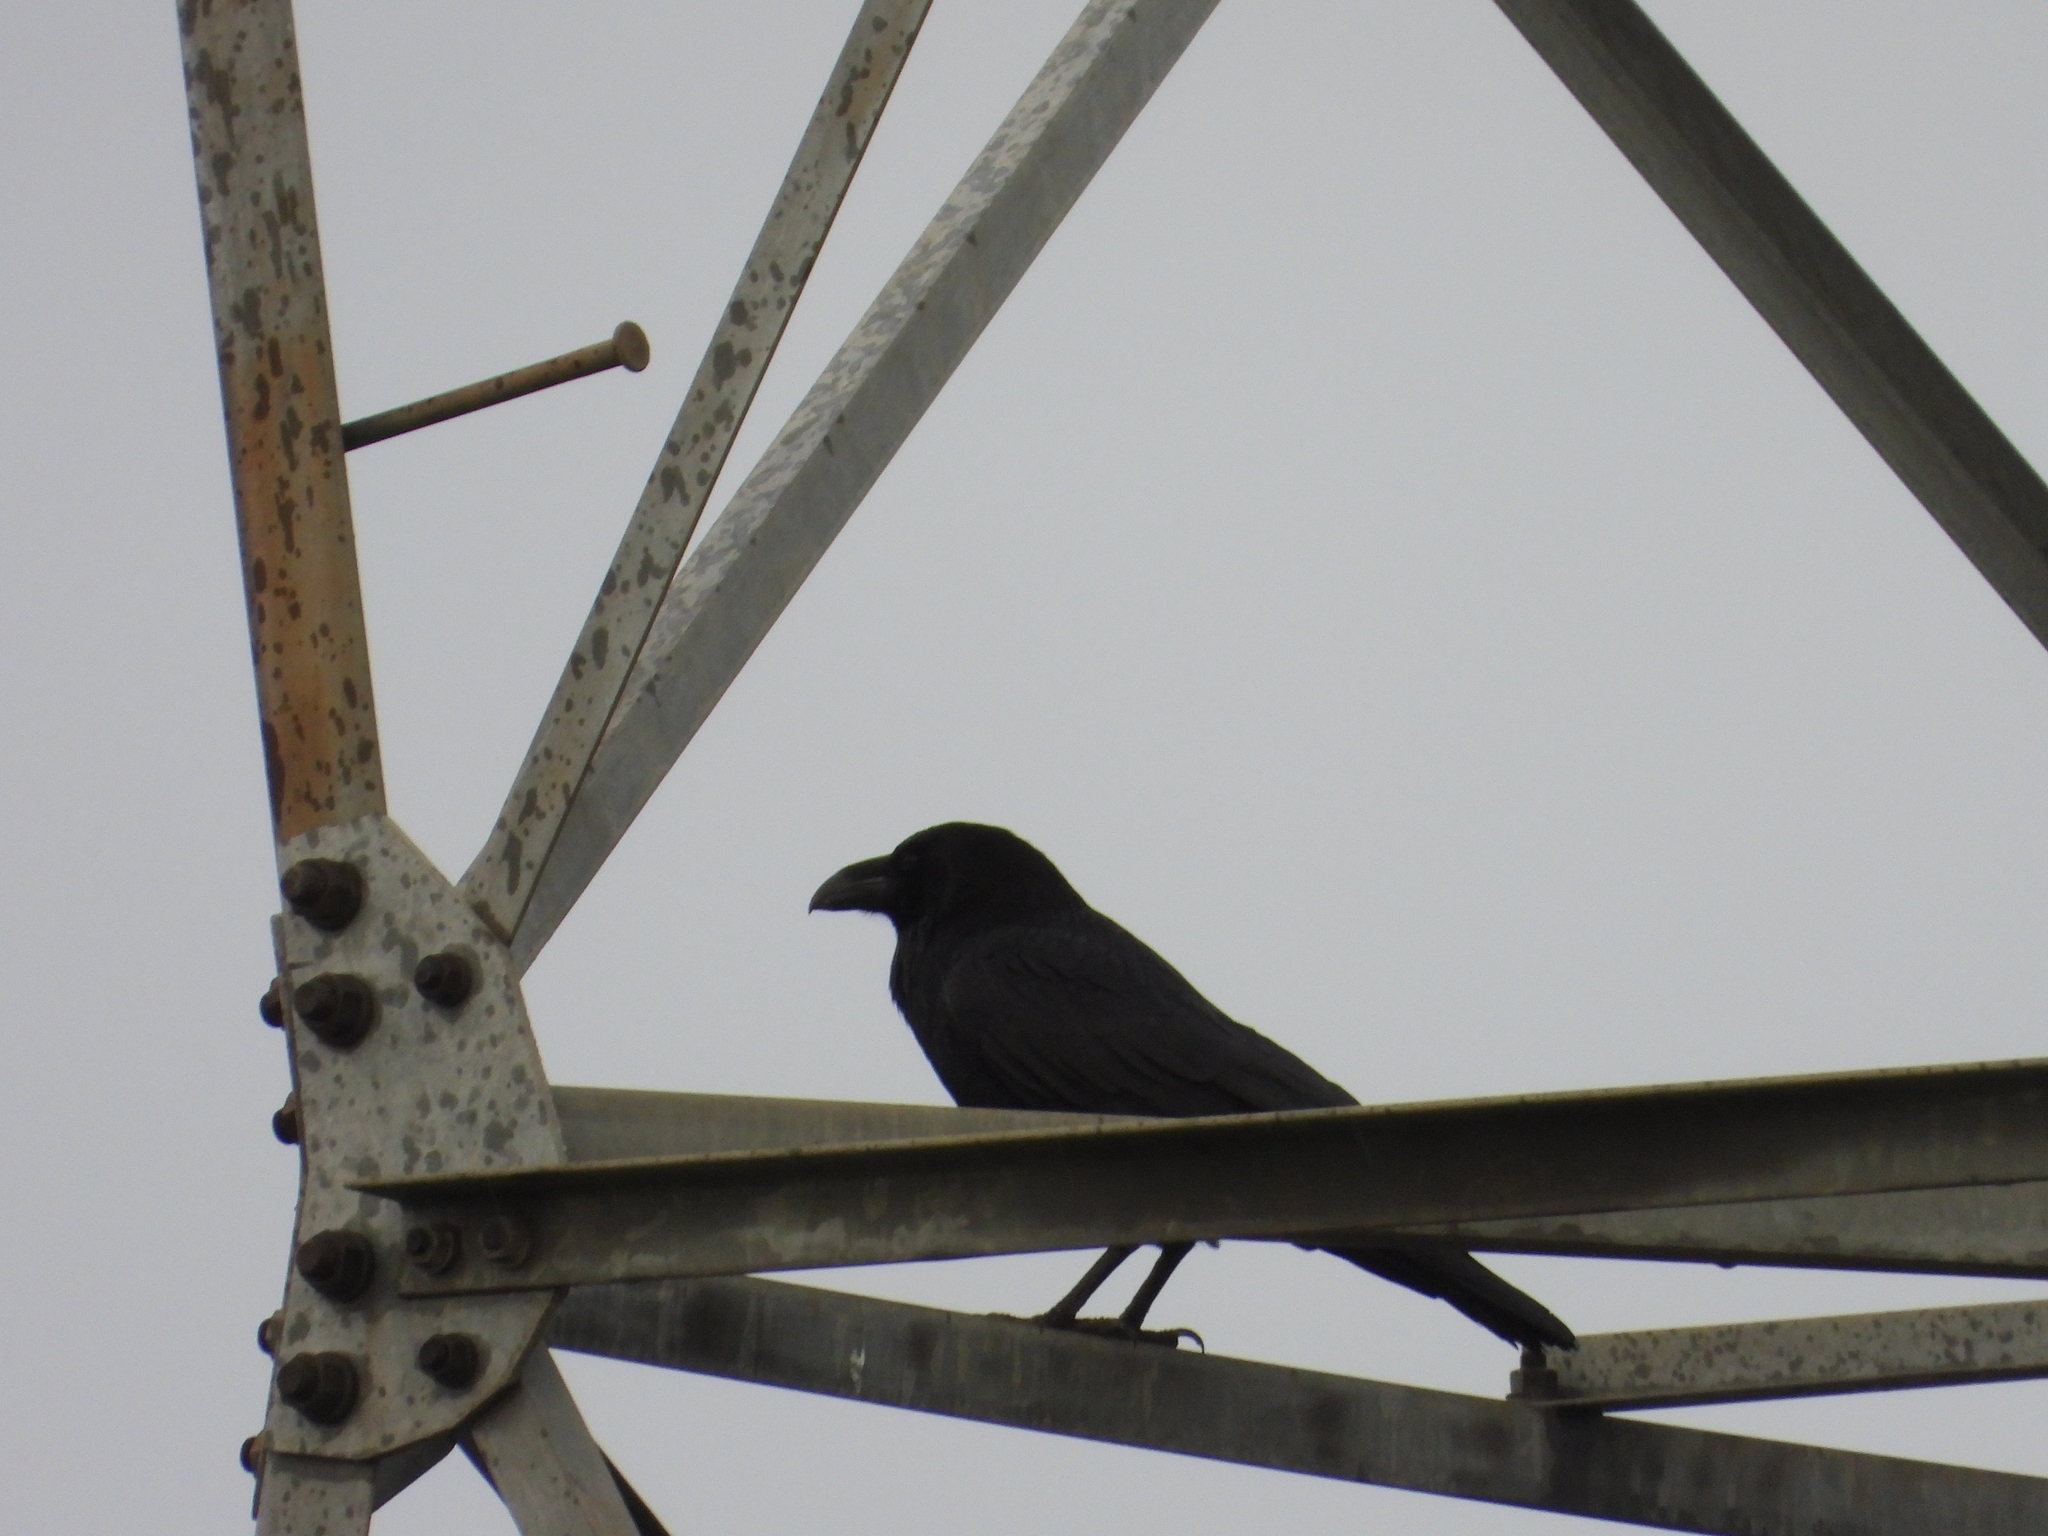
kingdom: Animalia
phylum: Chordata
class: Aves
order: Passeriformes
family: Corvidae
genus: Corvus
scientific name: Corvus corax
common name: Common raven
